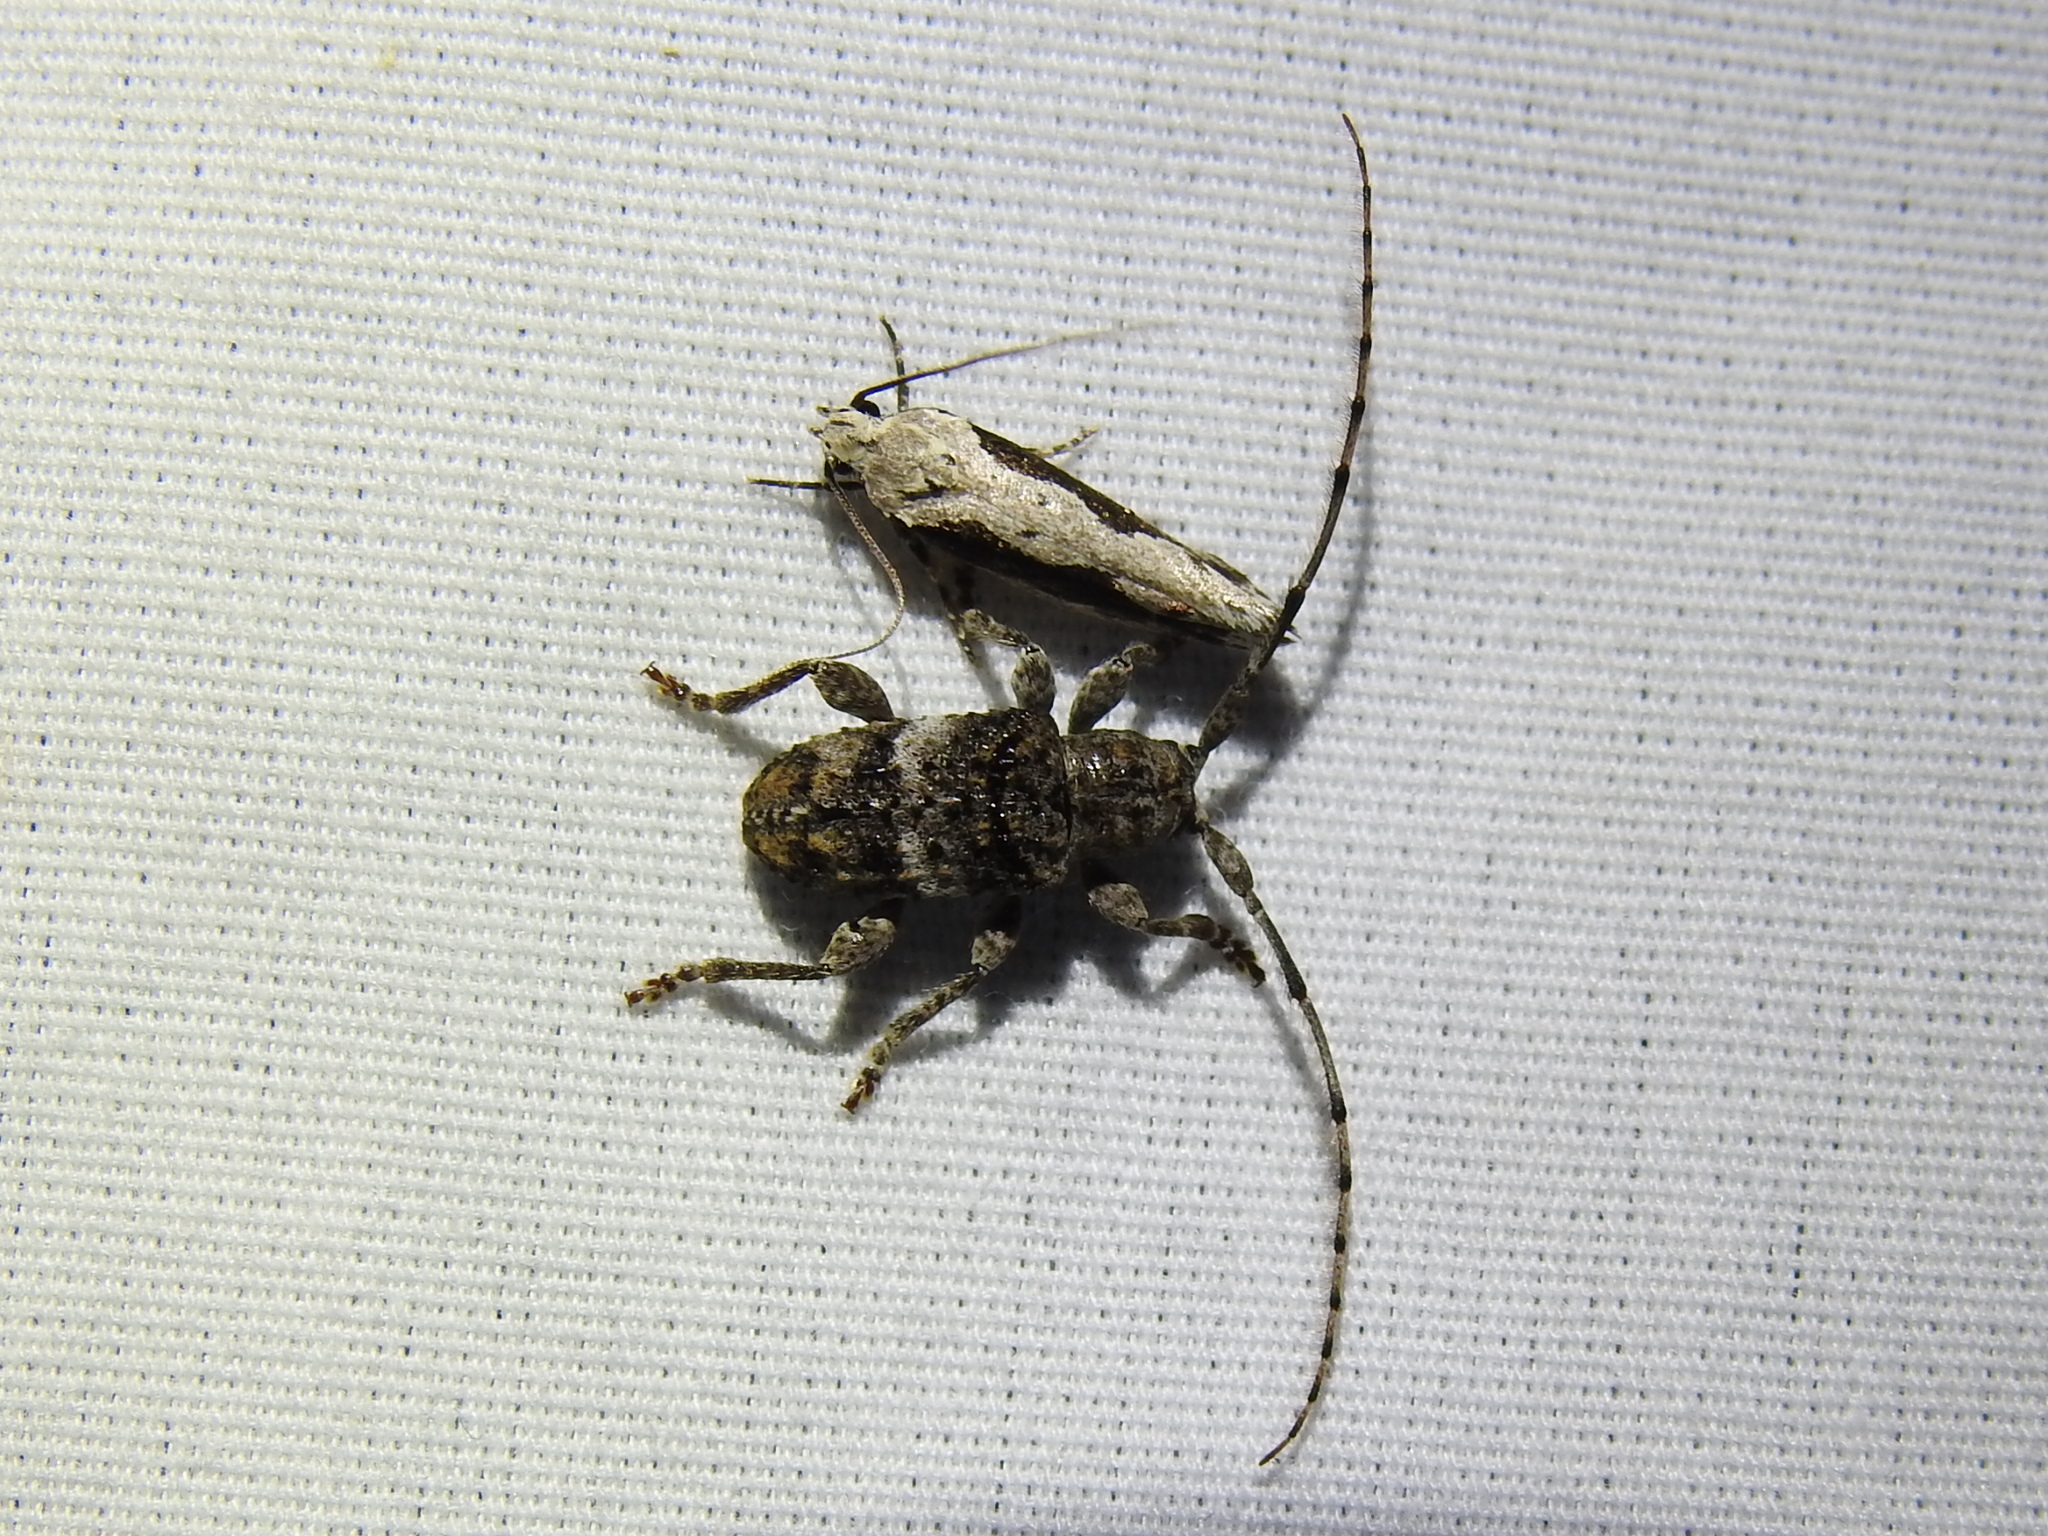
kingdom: Animalia
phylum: Arthropoda
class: Insecta
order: Coleoptera
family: Cerambycidae
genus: Ecyrus
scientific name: Ecyrus arcuatus
